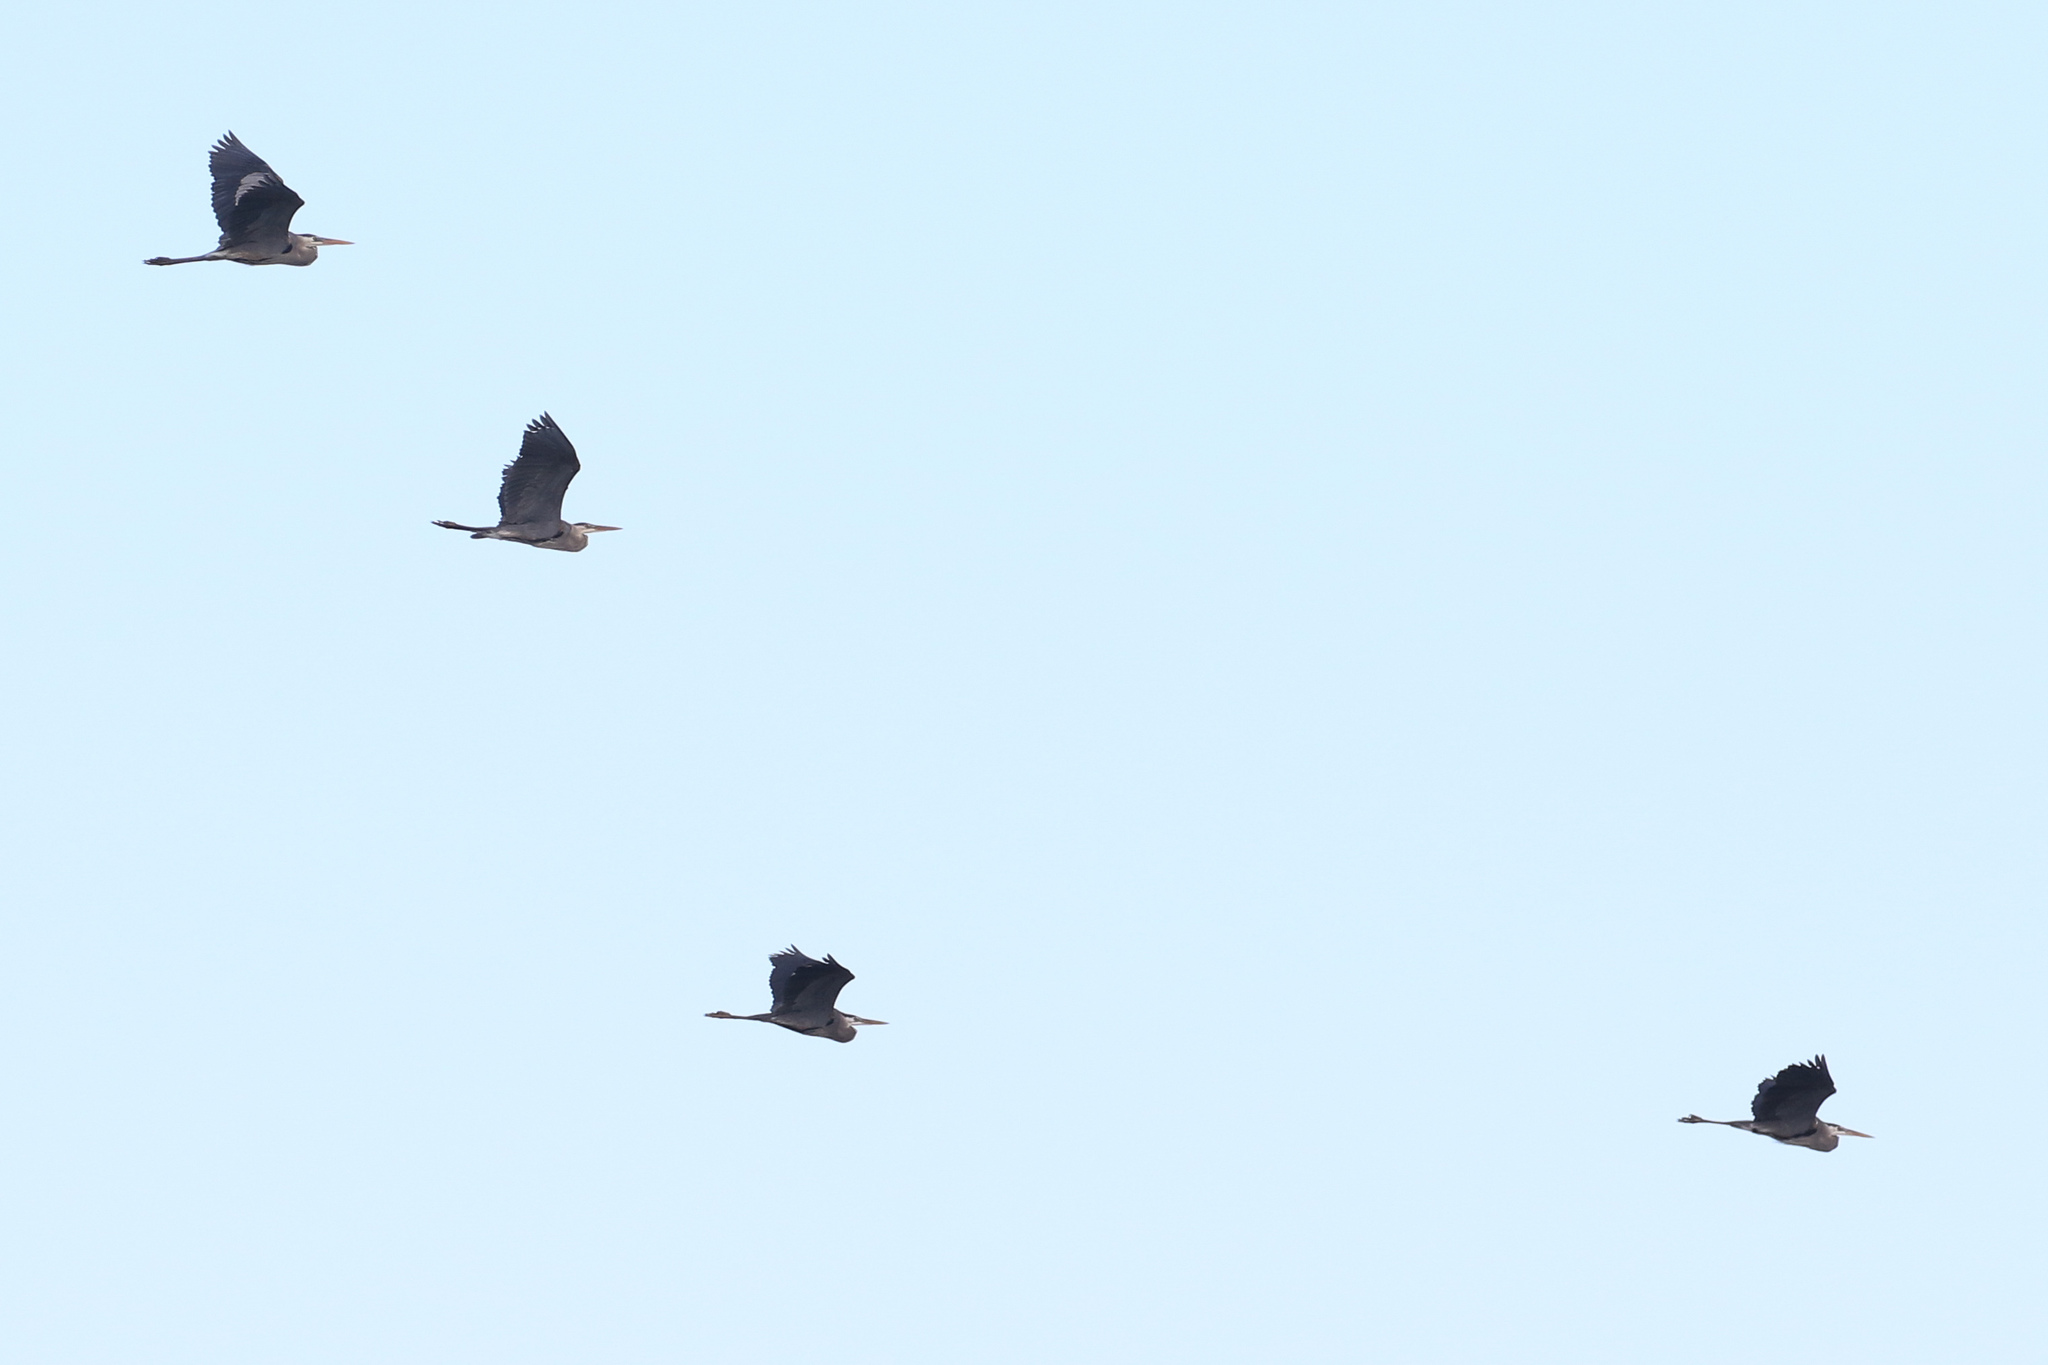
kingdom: Animalia
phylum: Chordata
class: Aves
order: Pelecaniformes
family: Ardeidae
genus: Ardea
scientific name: Ardea herodias
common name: Great blue heron
